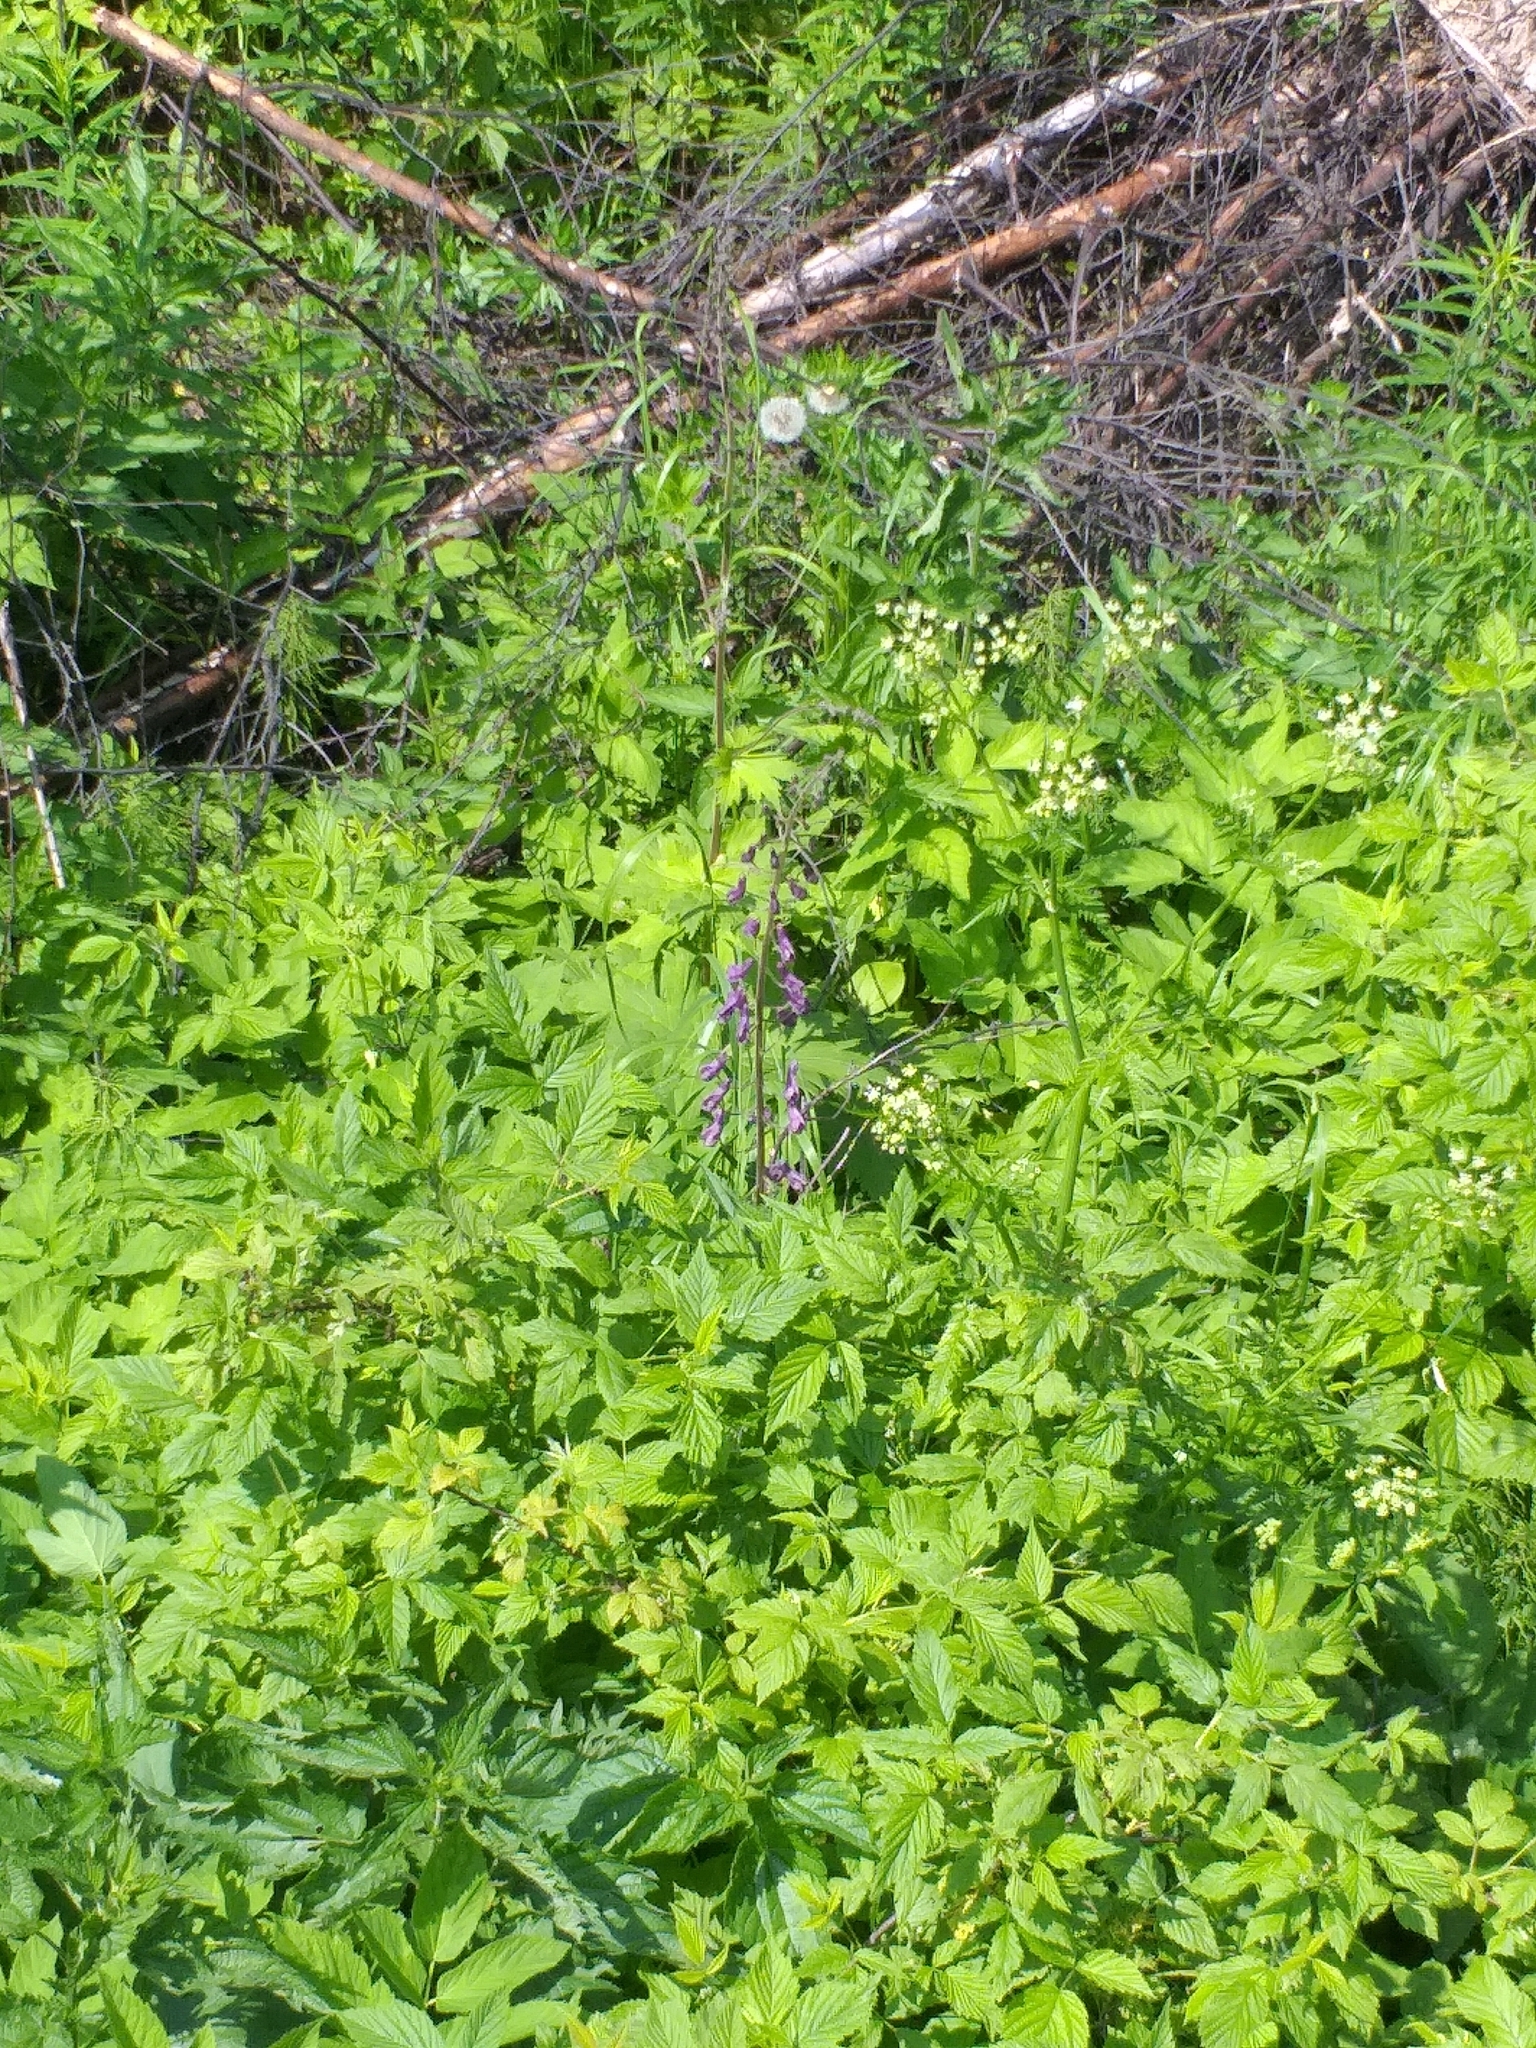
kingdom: Plantae
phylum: Tracheophyta
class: Magnoliopsida
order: Ranunculales
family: Ranunculaceae
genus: Aconitum
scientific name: Aconitum septentrionale
